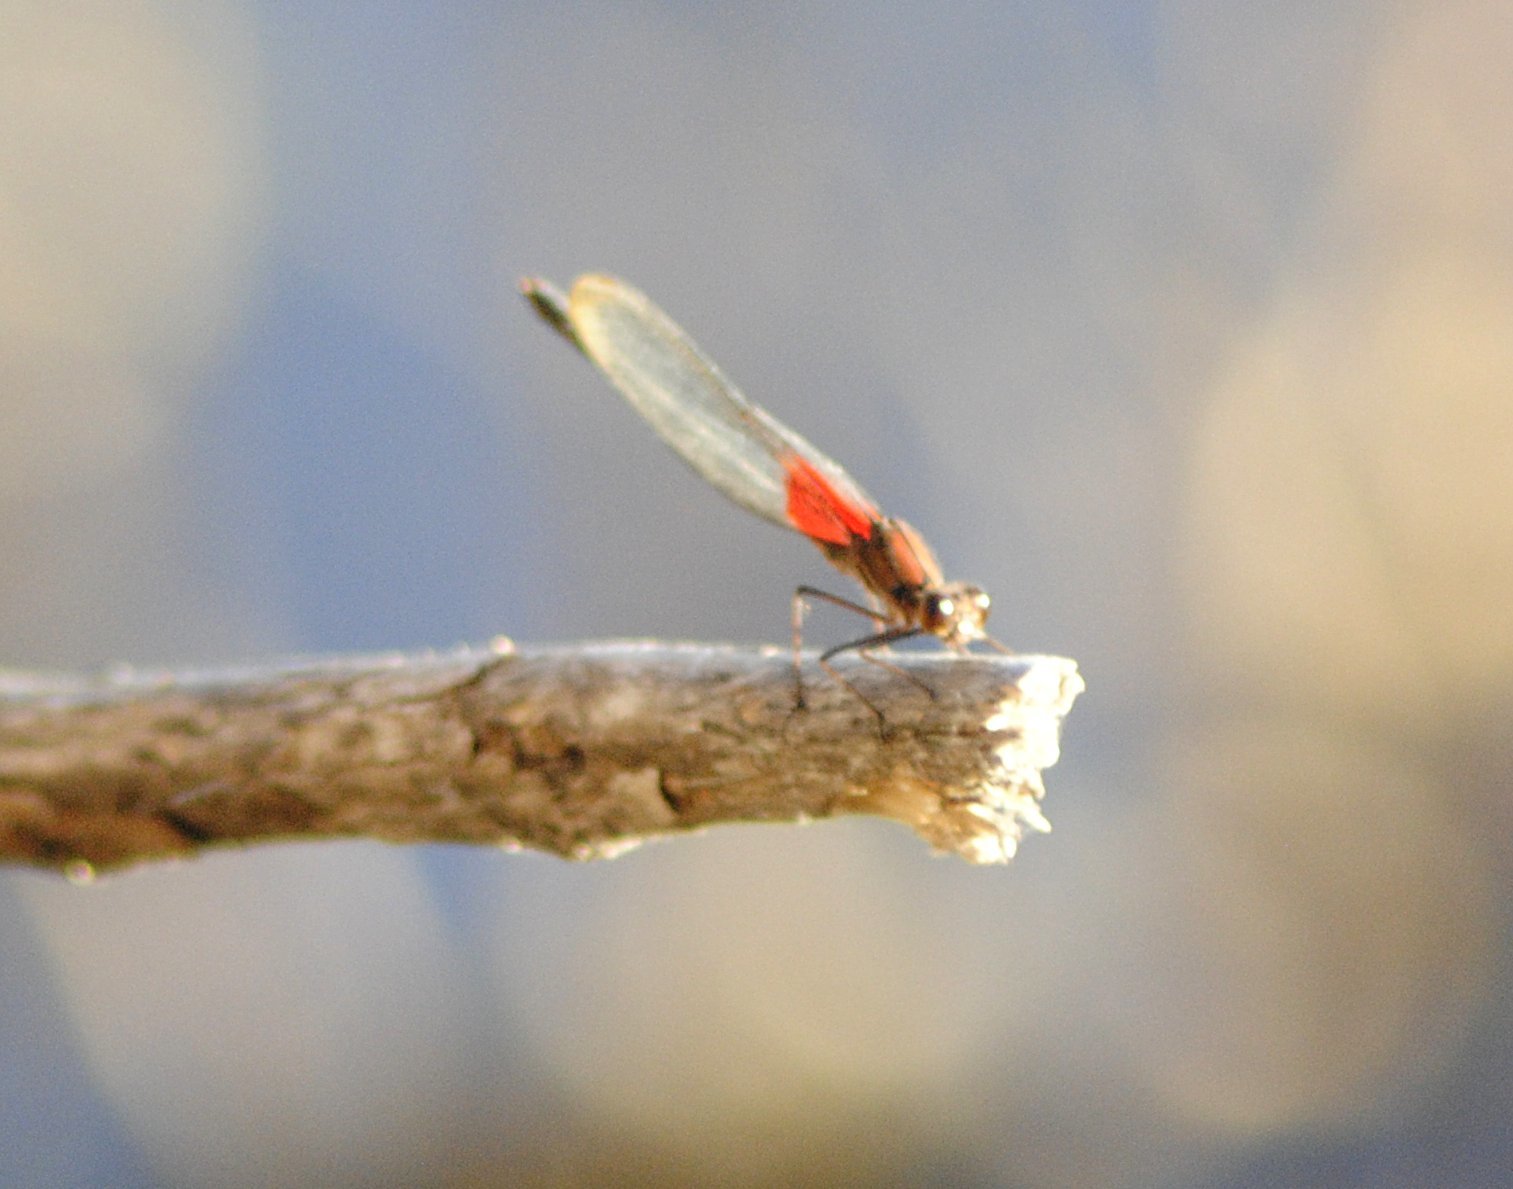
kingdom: Animalia
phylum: Arthropoda
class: Insecta
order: Odonata
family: Calopterygidae
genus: Hetaerina
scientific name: Hetaerina americana
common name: American rubyspot
